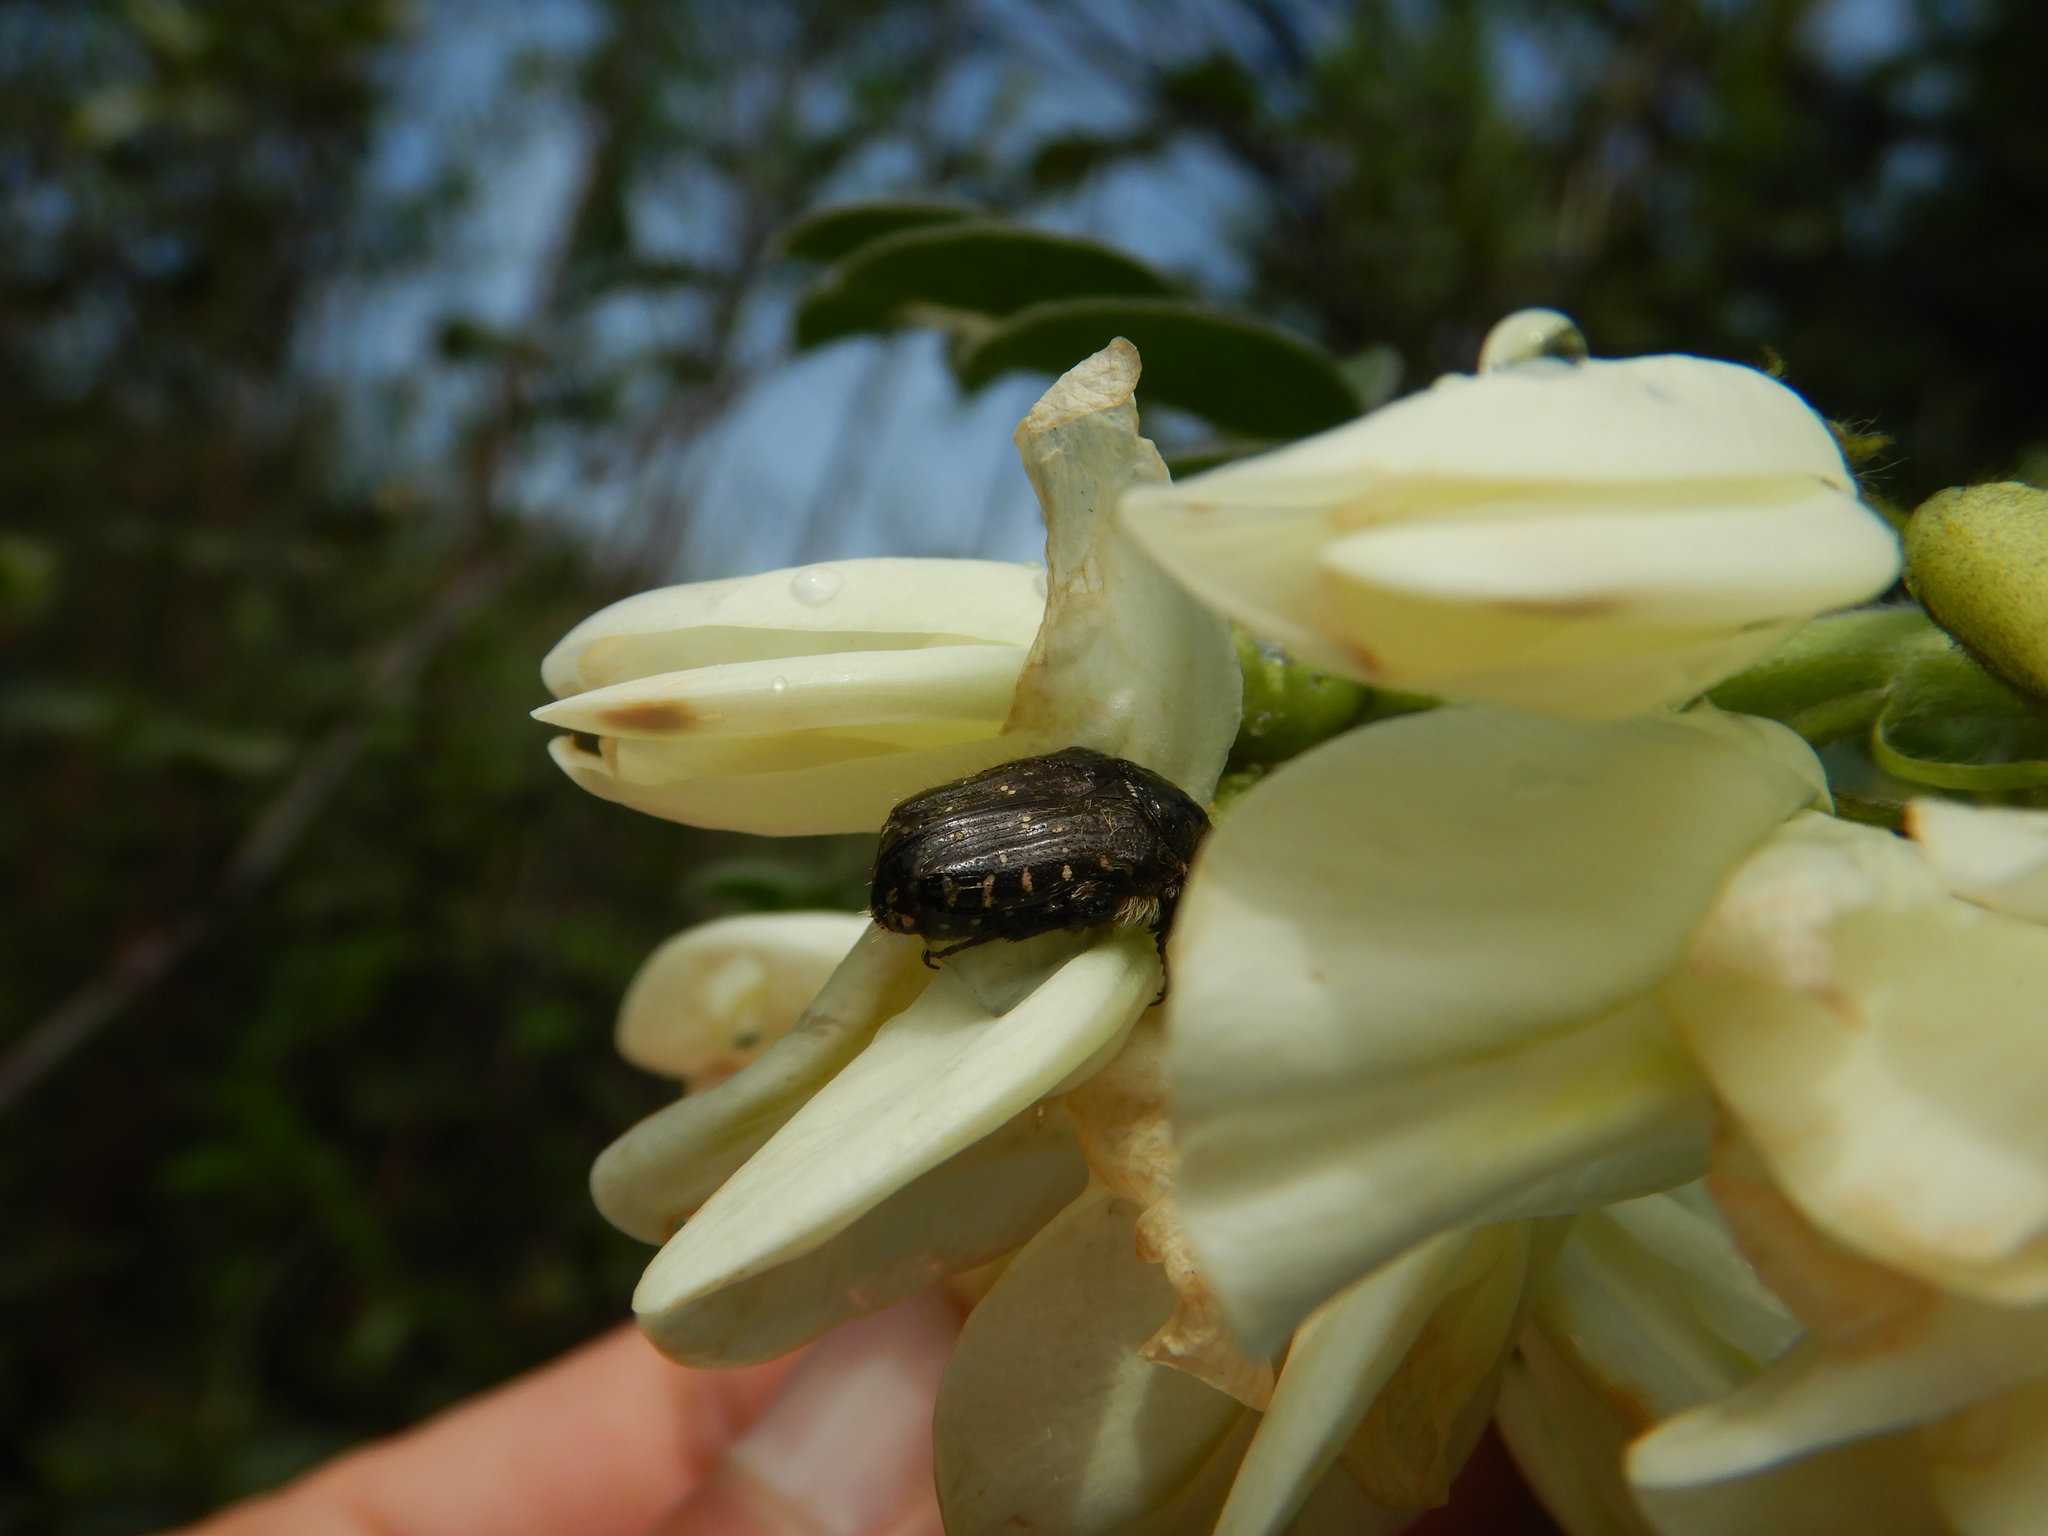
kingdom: Animalia
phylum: Arthropoda
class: Insecta
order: Coleoptera
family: Scarabaeidae
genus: Oxythyrea
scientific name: Oxythyrea funesta
